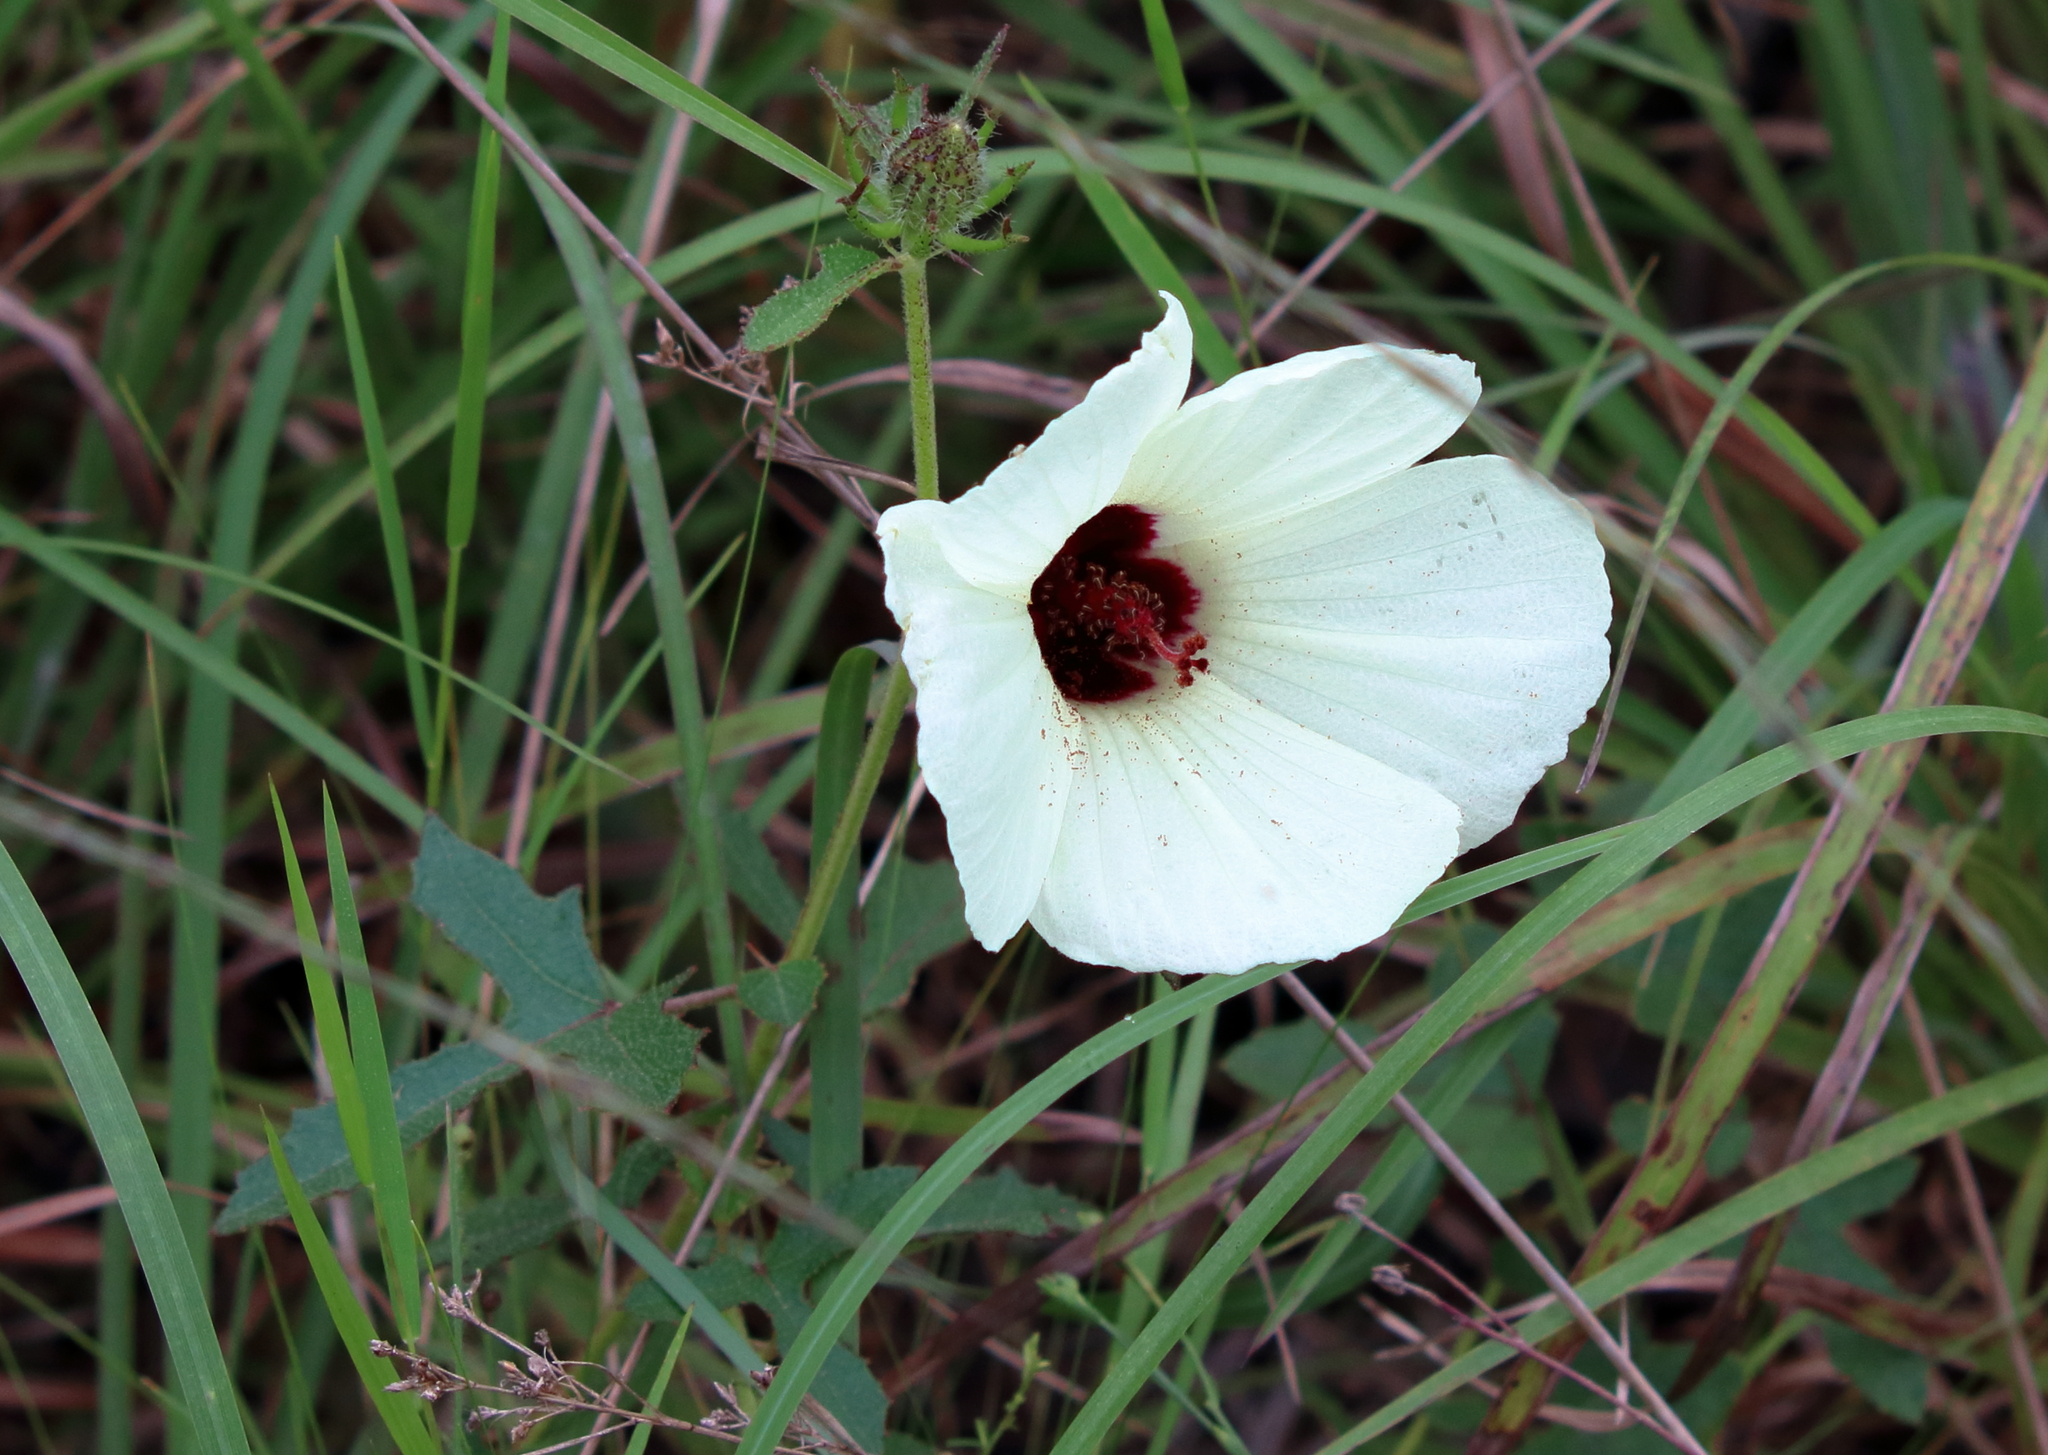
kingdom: Plantae
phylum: Tracheophyta
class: Magnoliopsida
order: Malvales
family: Malvaceae
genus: Hibiscus
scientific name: Hibiscus aculeatus
